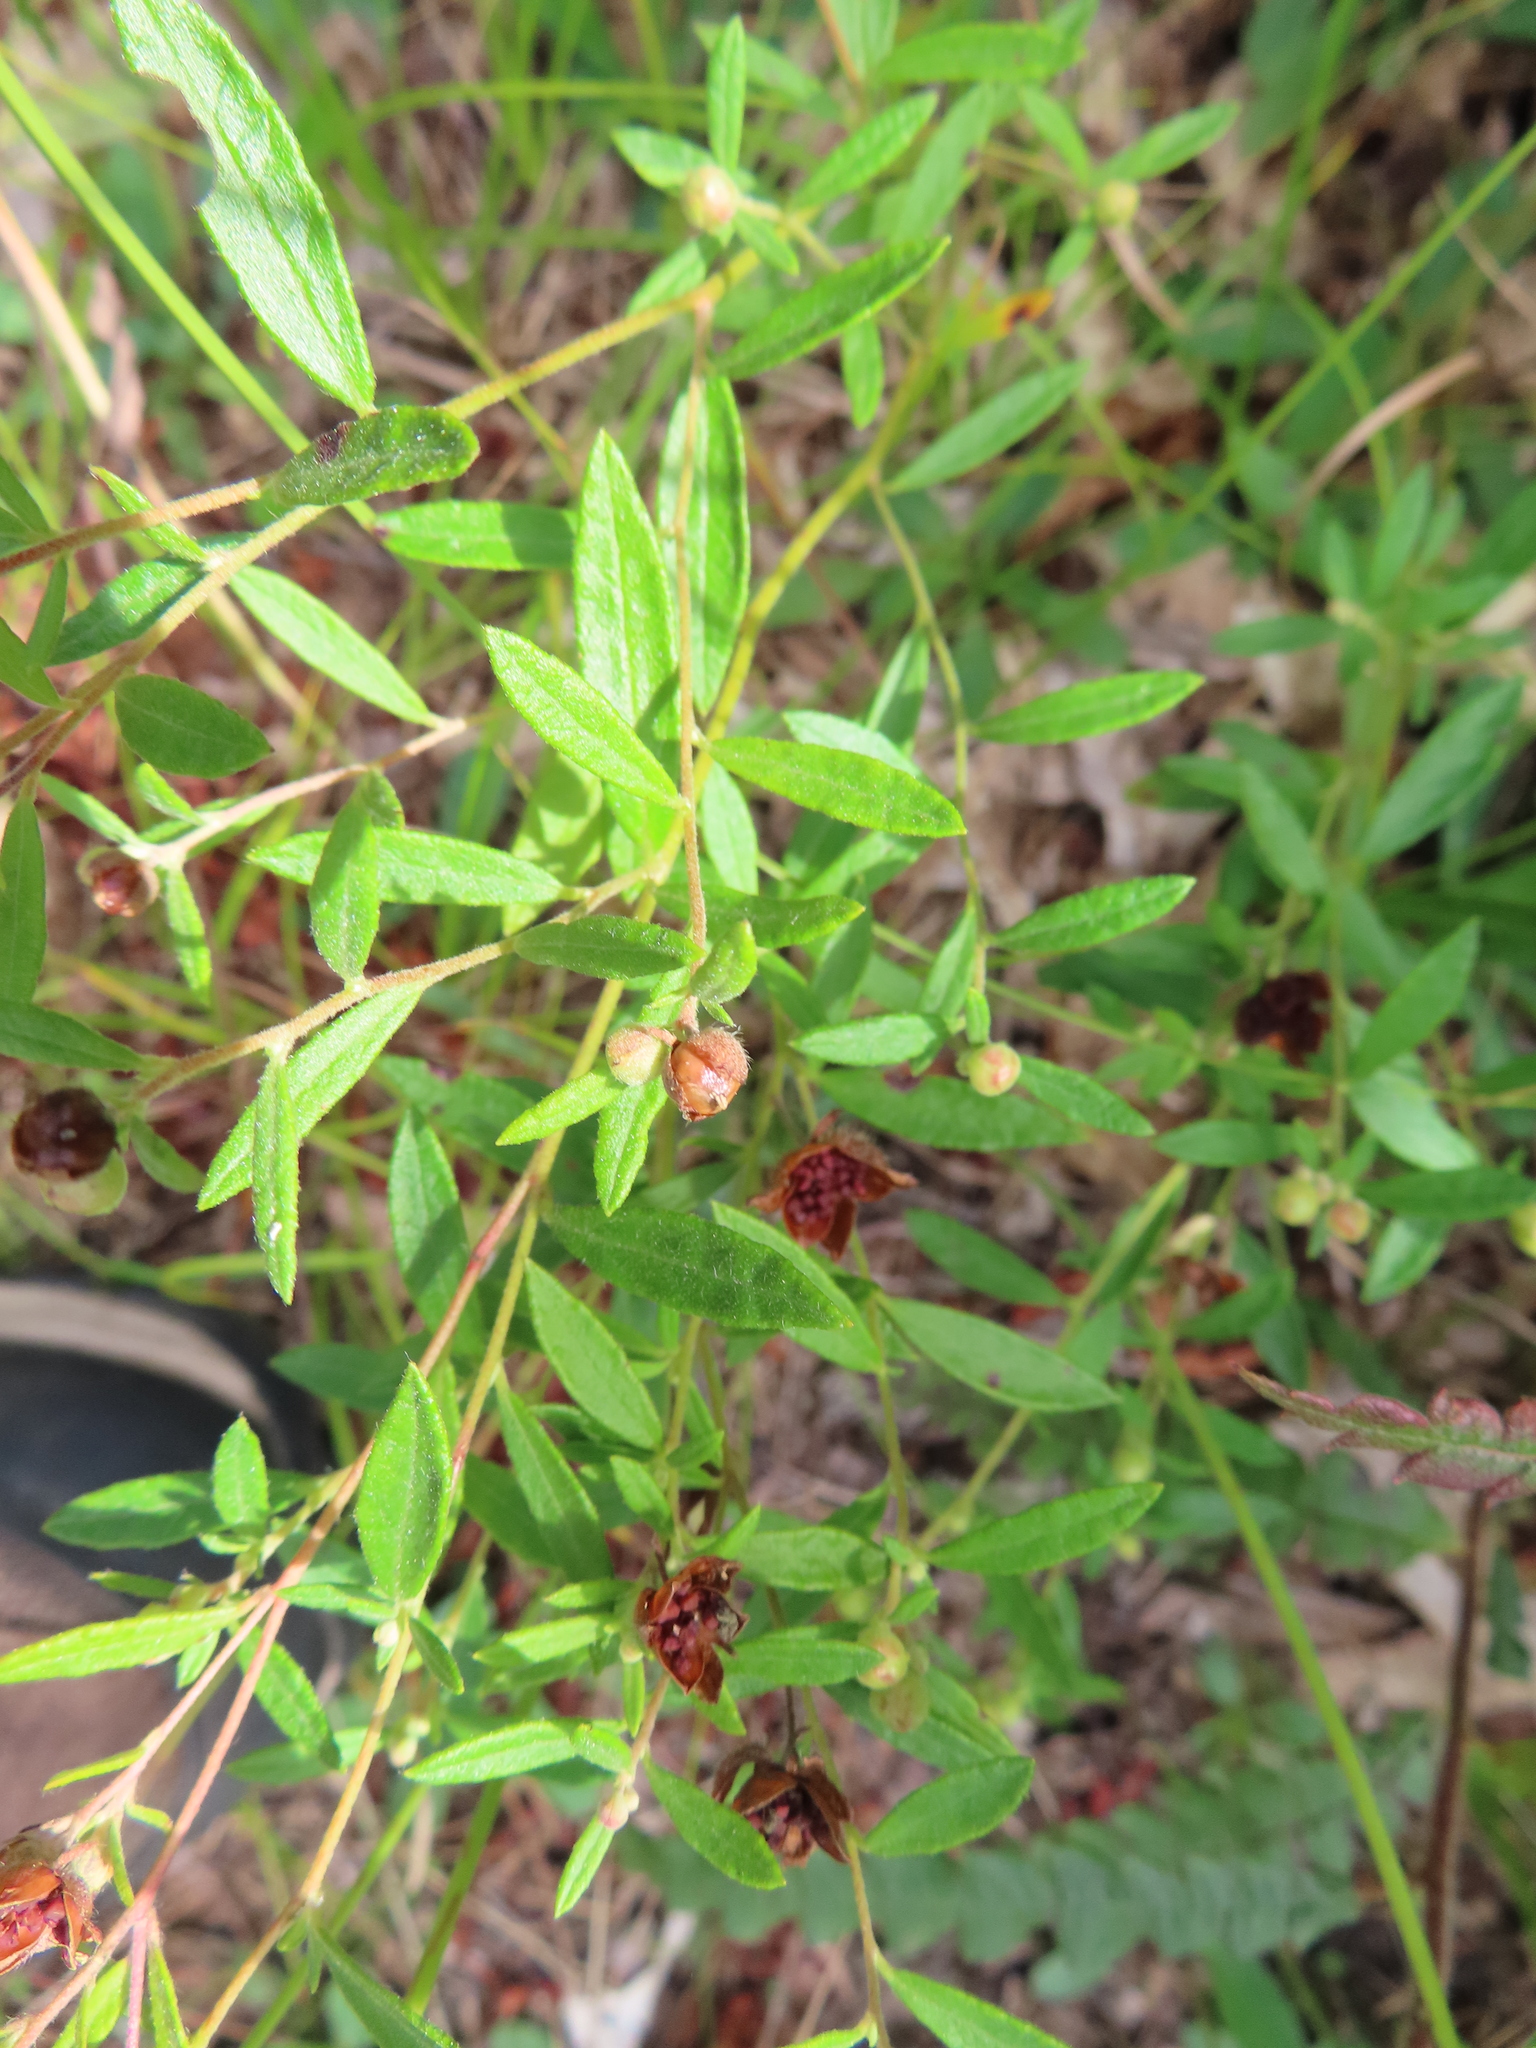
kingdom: Plantae
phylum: Tracheophyta
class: Magnoliopsida
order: Malvales
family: Cistaceae
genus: Crocanthemum
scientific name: Crocanthemum canadense
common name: Canada frostweed
